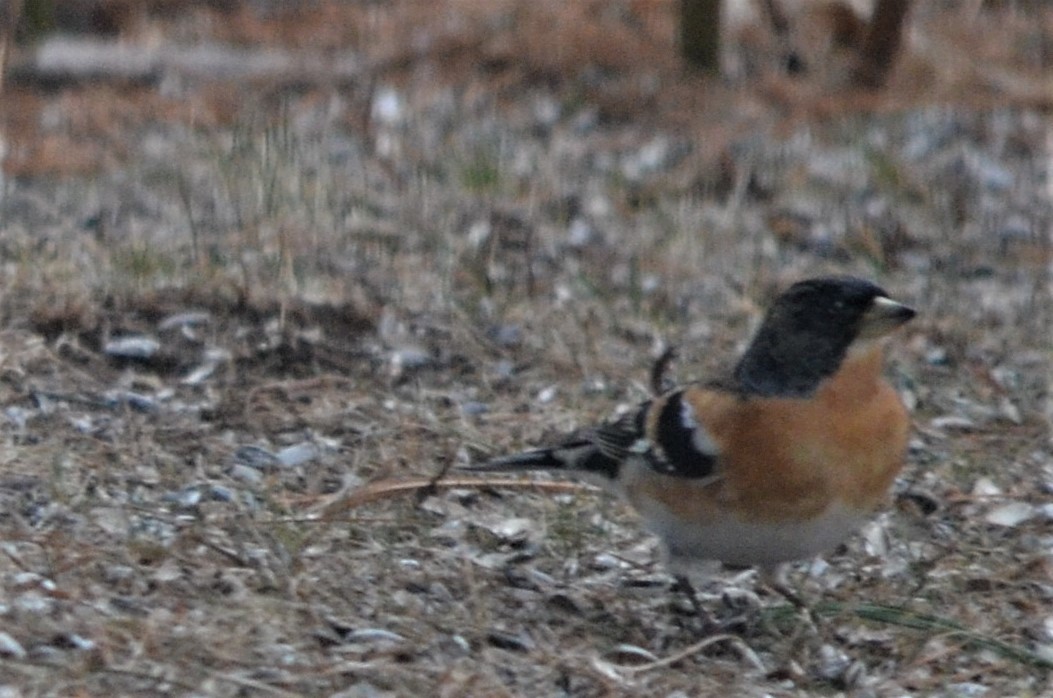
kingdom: Animalia
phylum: Chordata
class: Aves
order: Passeriformes
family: Fringillidae
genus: Fringilla
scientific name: Fringilla montifringilla
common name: Brambling
